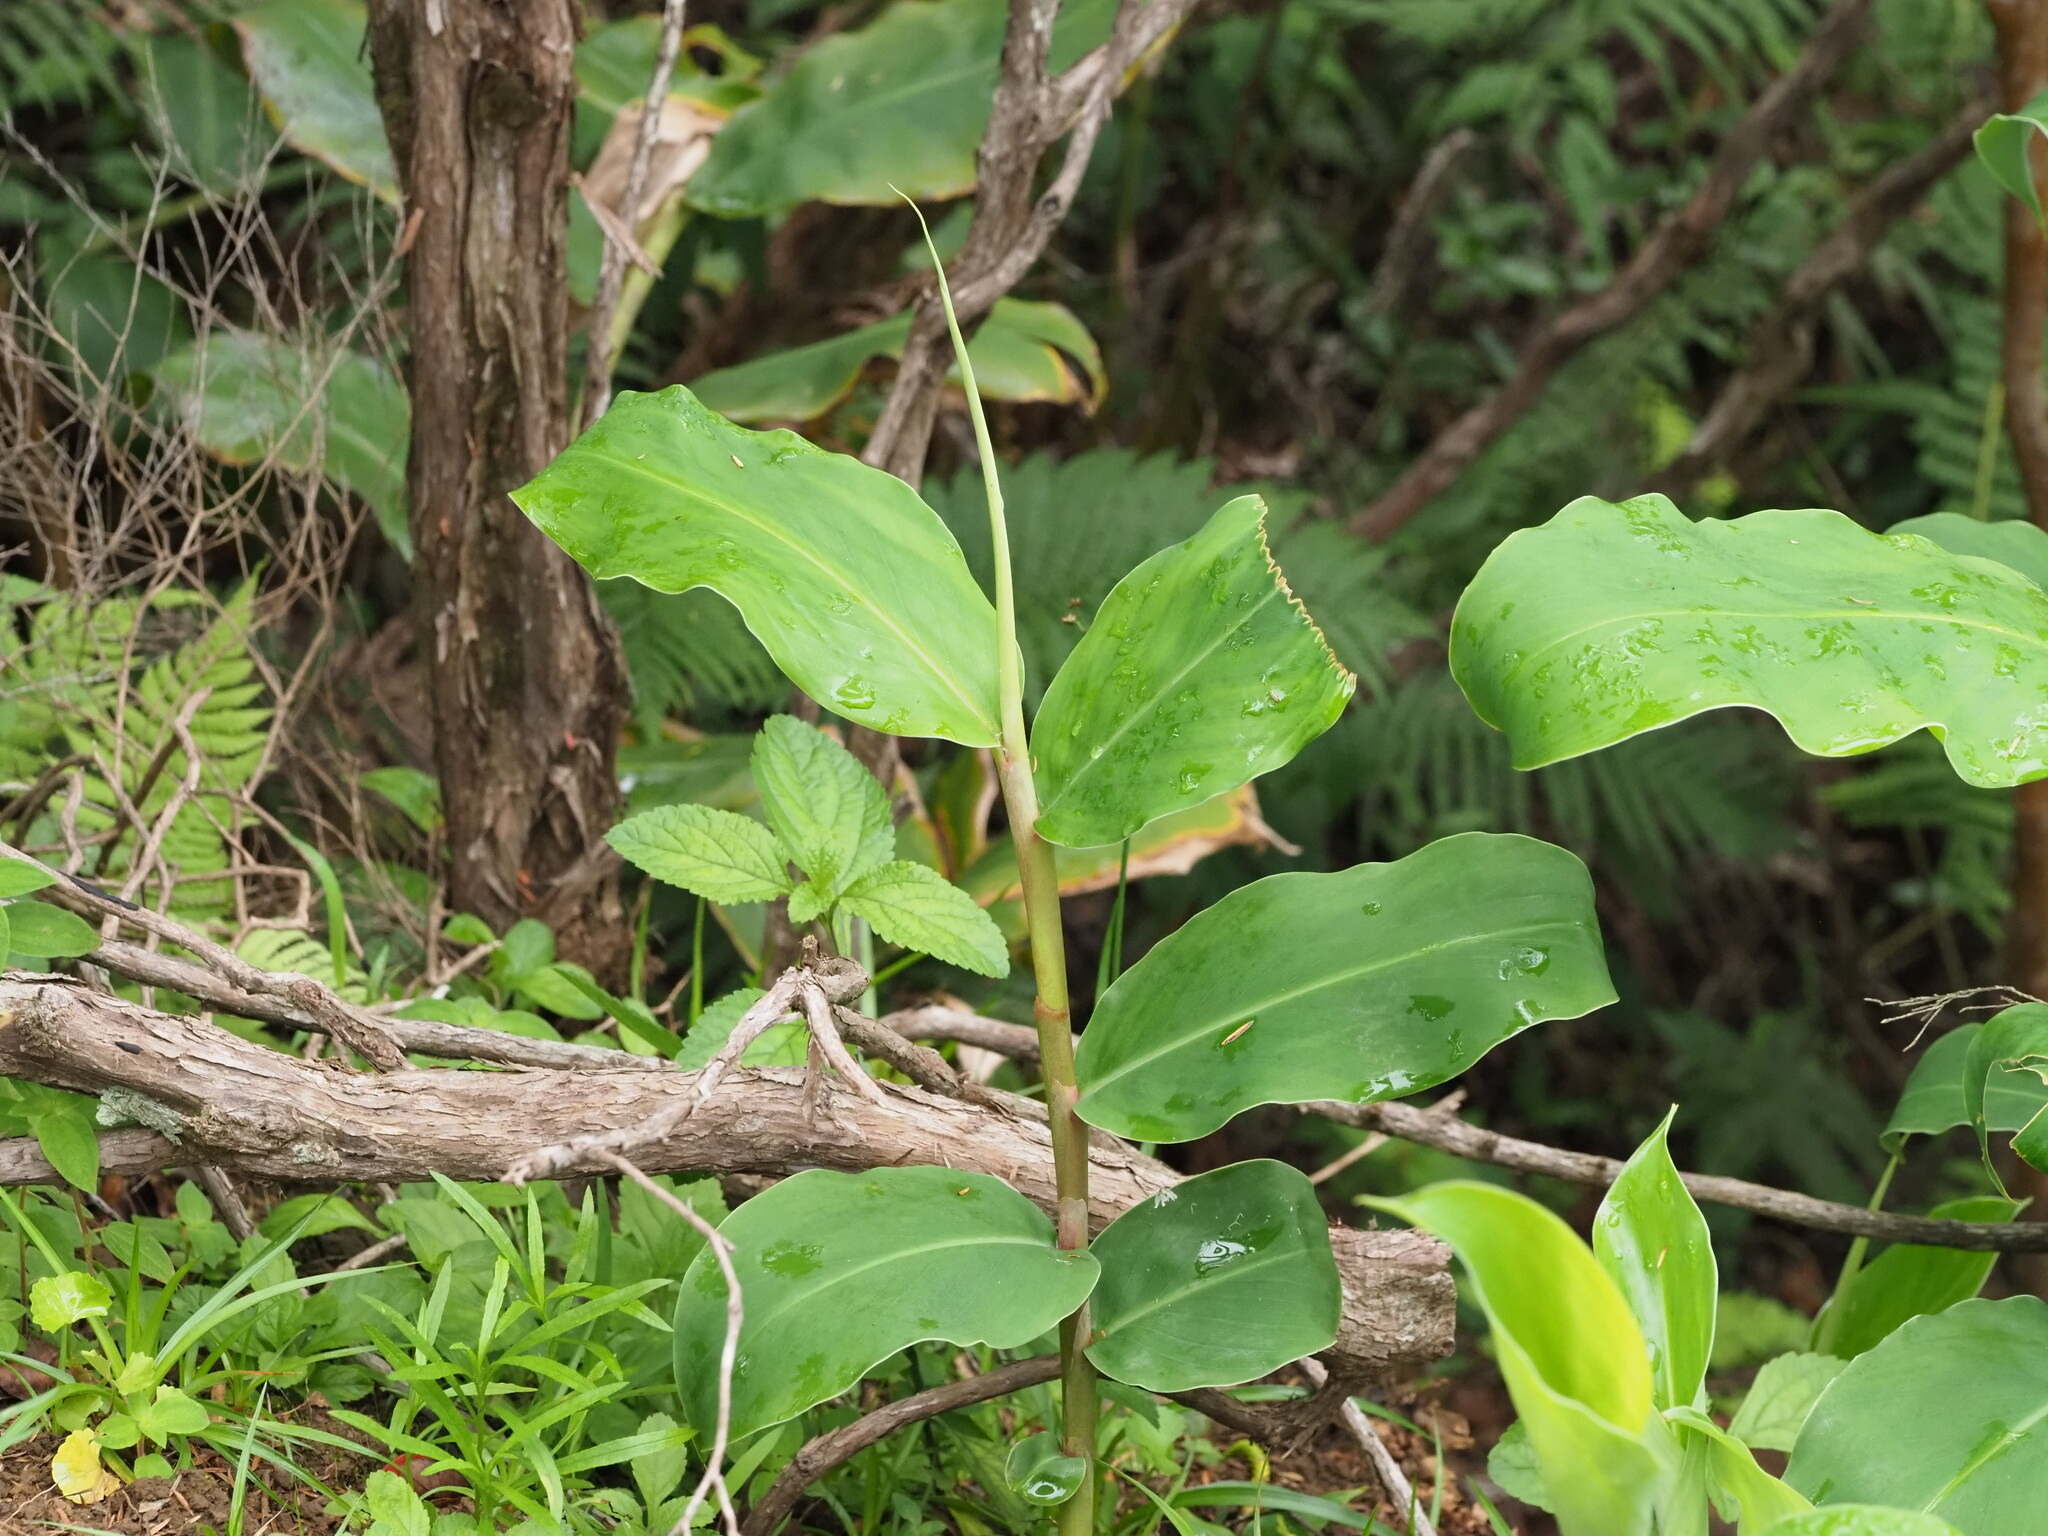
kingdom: Plantae
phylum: Tracheophyta
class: Liliopsida
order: Zingiberales
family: Zingiberaceae
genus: Hedychium
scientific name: Hedychium gardnerianum
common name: Himalayan ginger
